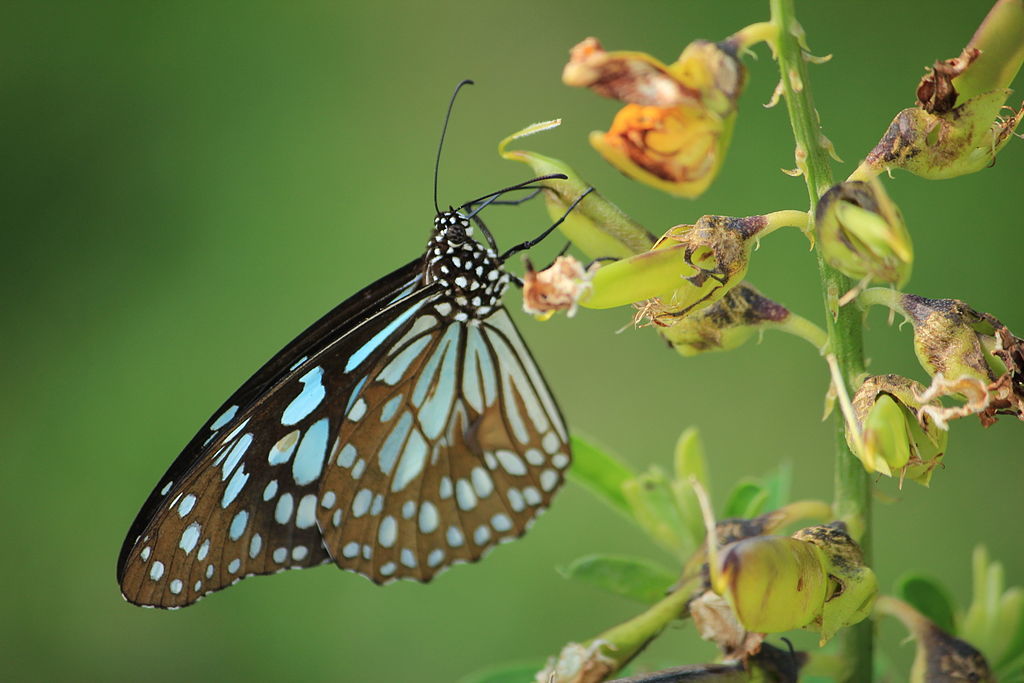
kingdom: Animalia
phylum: Arthropoda
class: Insecta
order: Lepidoptera
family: Nymphalidae
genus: Tirumala
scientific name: Tirumala limniace
